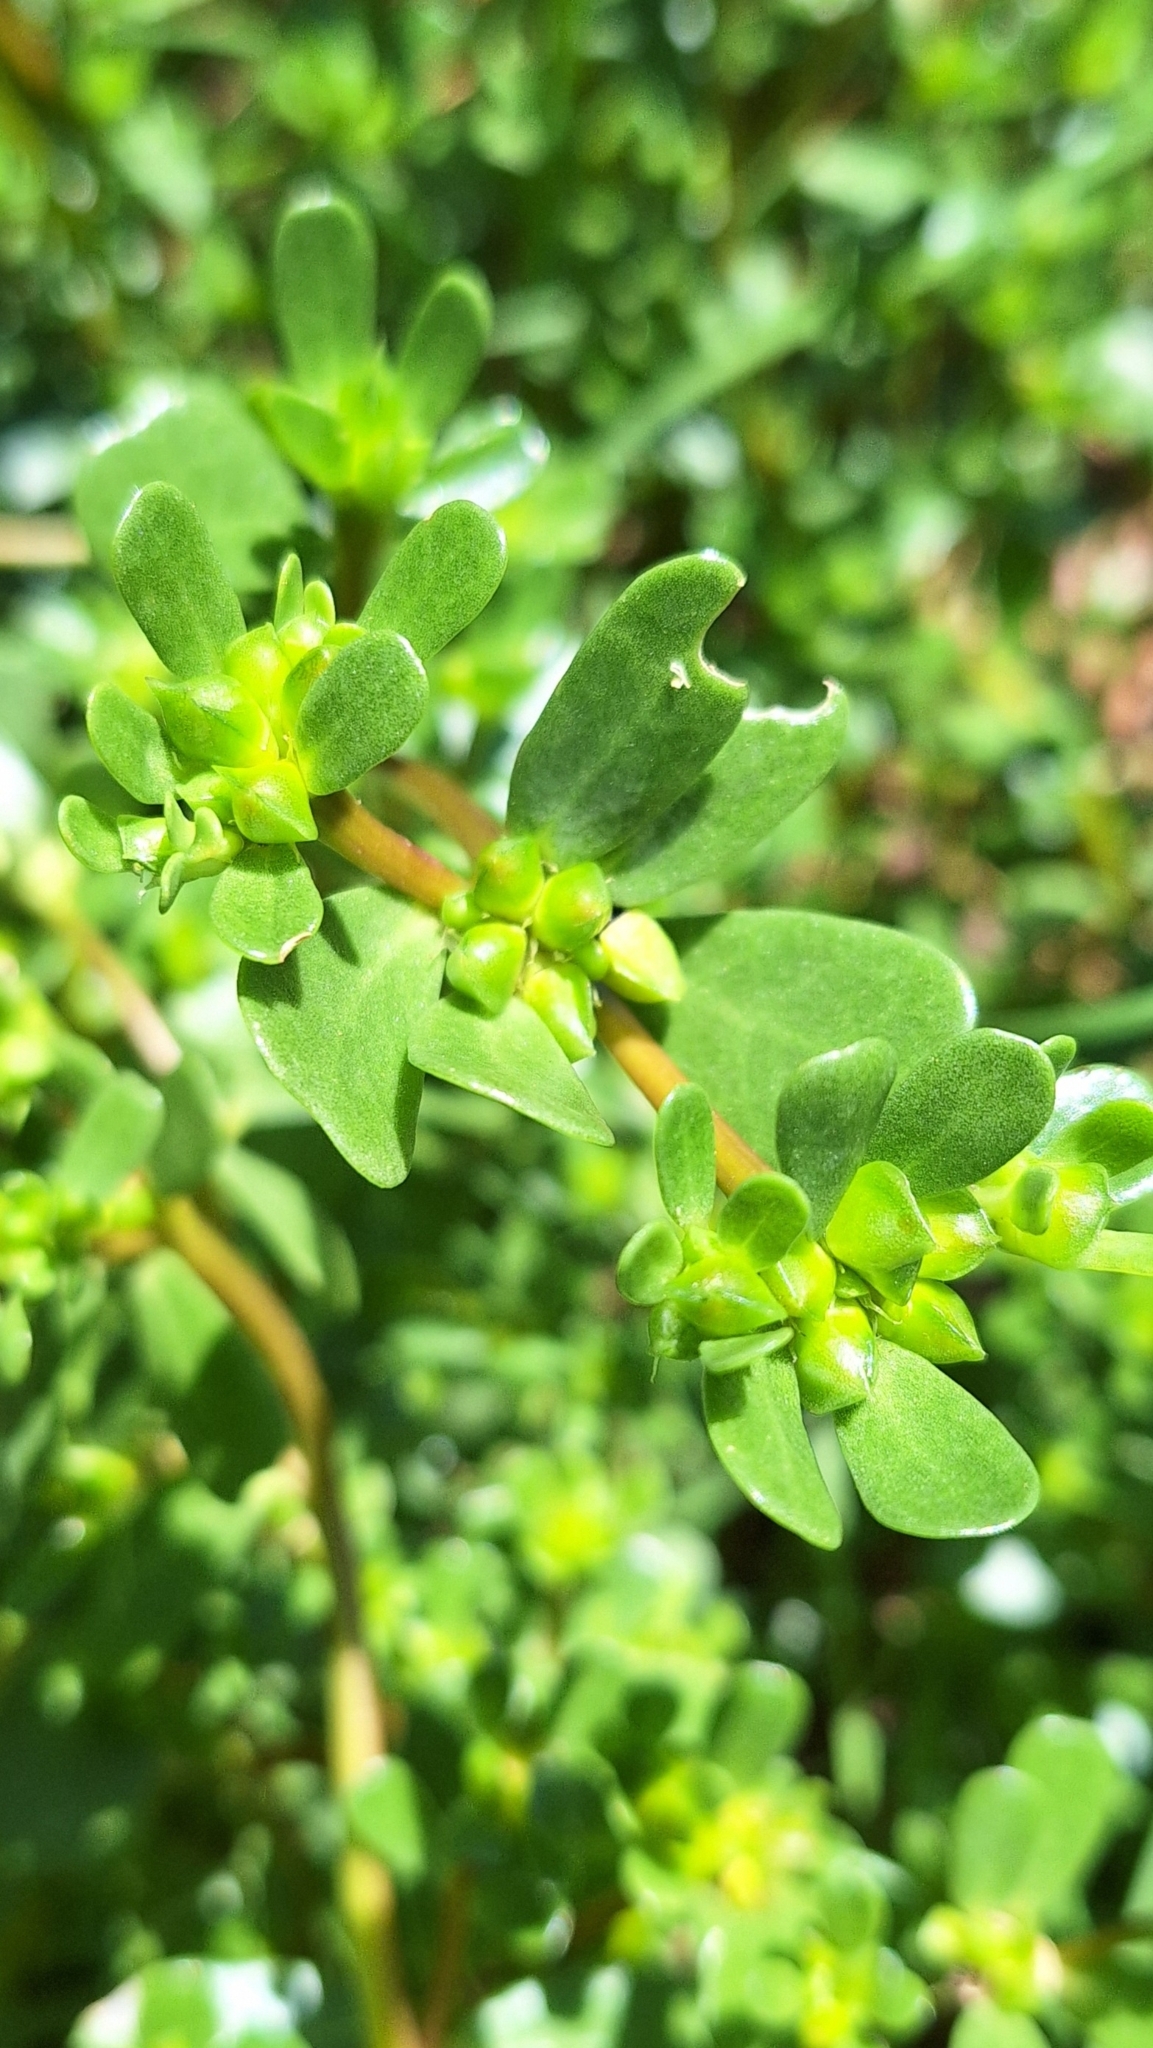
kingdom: Plantae
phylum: Tracheophyta
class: Magnoliopsida
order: Caryophyllales
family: Portulacaceae
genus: Portulaca
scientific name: Portulaca oleracea
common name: Common purslane
